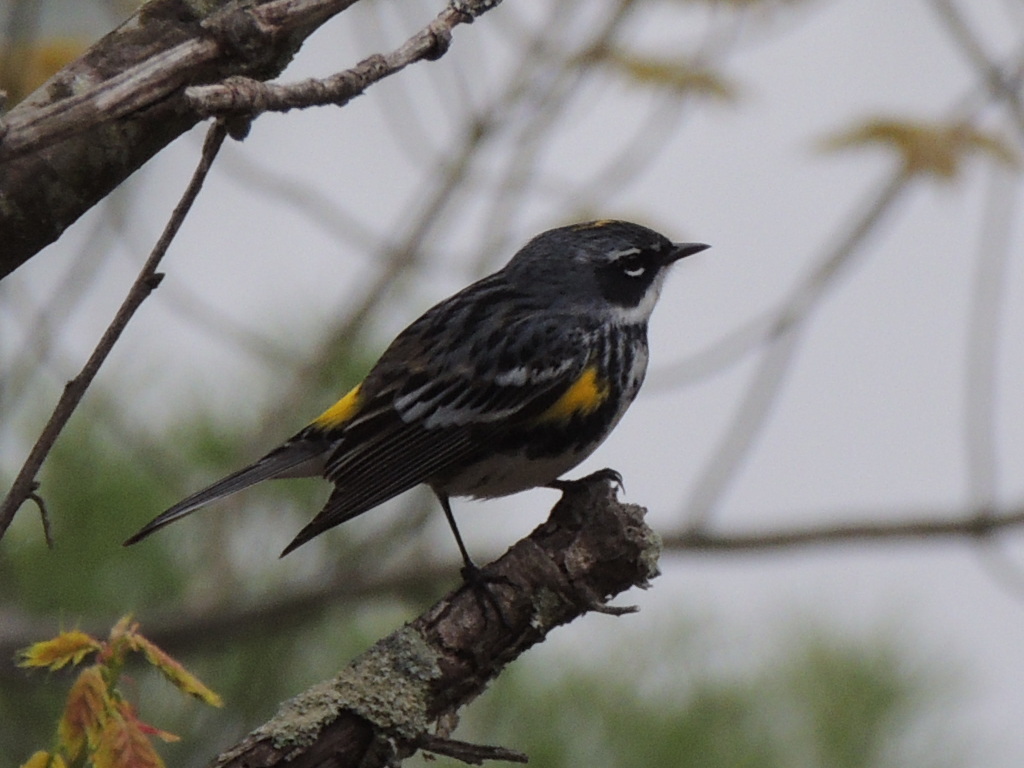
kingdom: Animalia
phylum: Chordata
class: Aves
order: Passeriformes
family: Parulidae
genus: Setophaga
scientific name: Setophaga coronata
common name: Myrtle warbler
